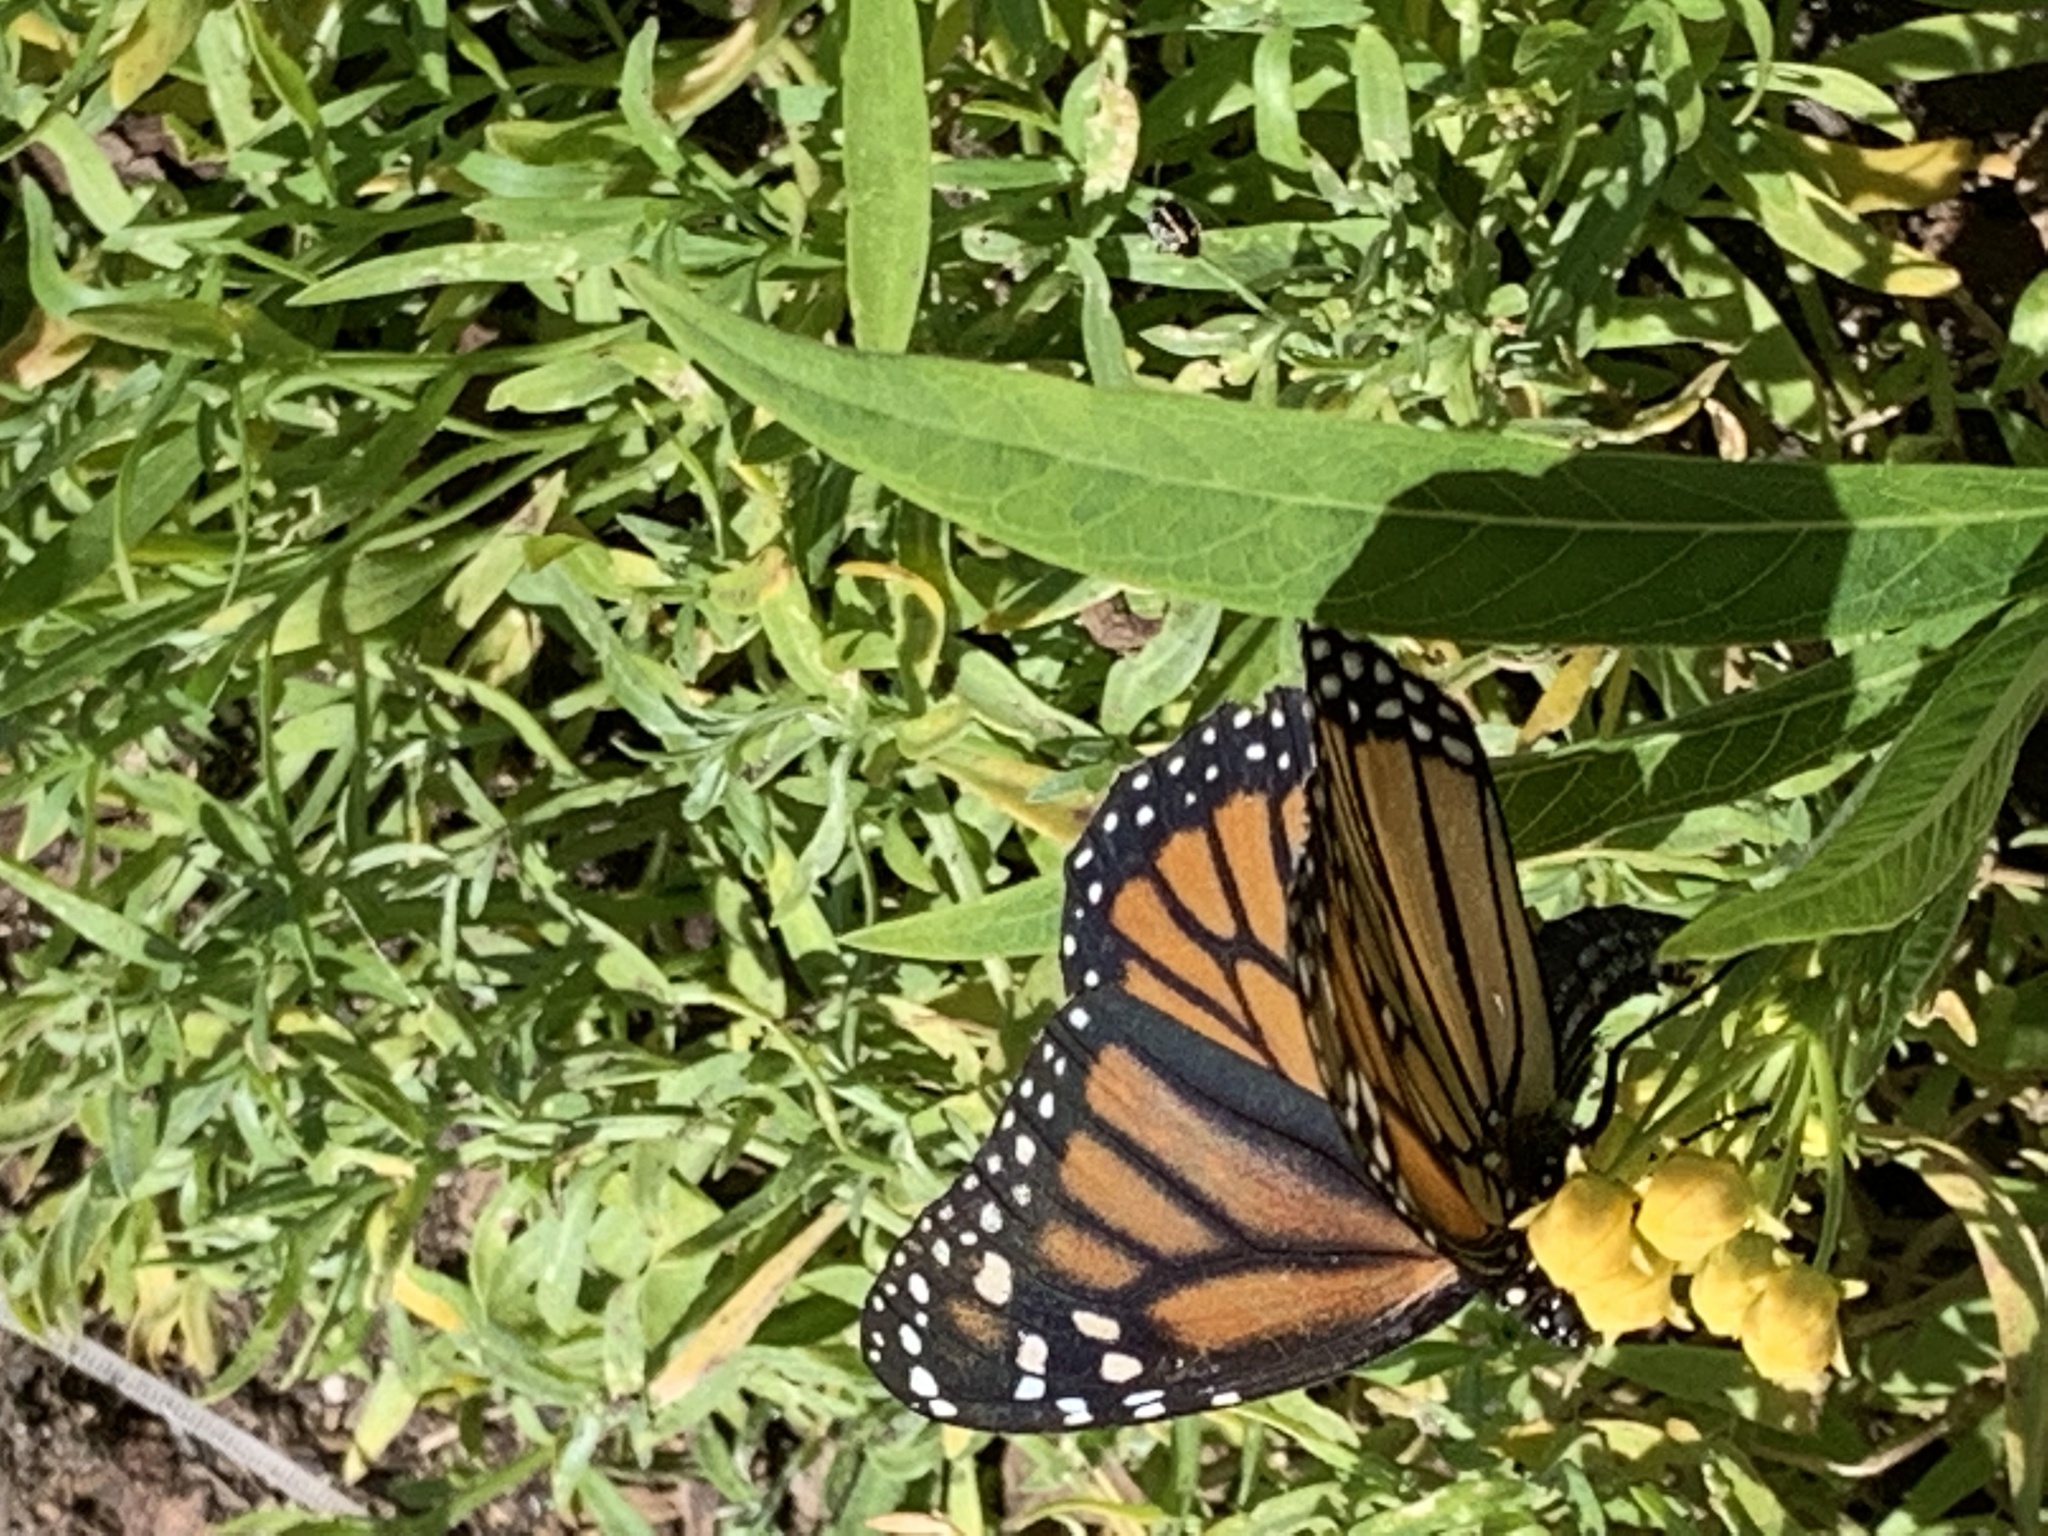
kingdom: Animalia
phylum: Arthropoda
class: Insecta
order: Lepidoptera
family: Nymphalidae
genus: Danaus
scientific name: Danaus plexippus
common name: Monarch
